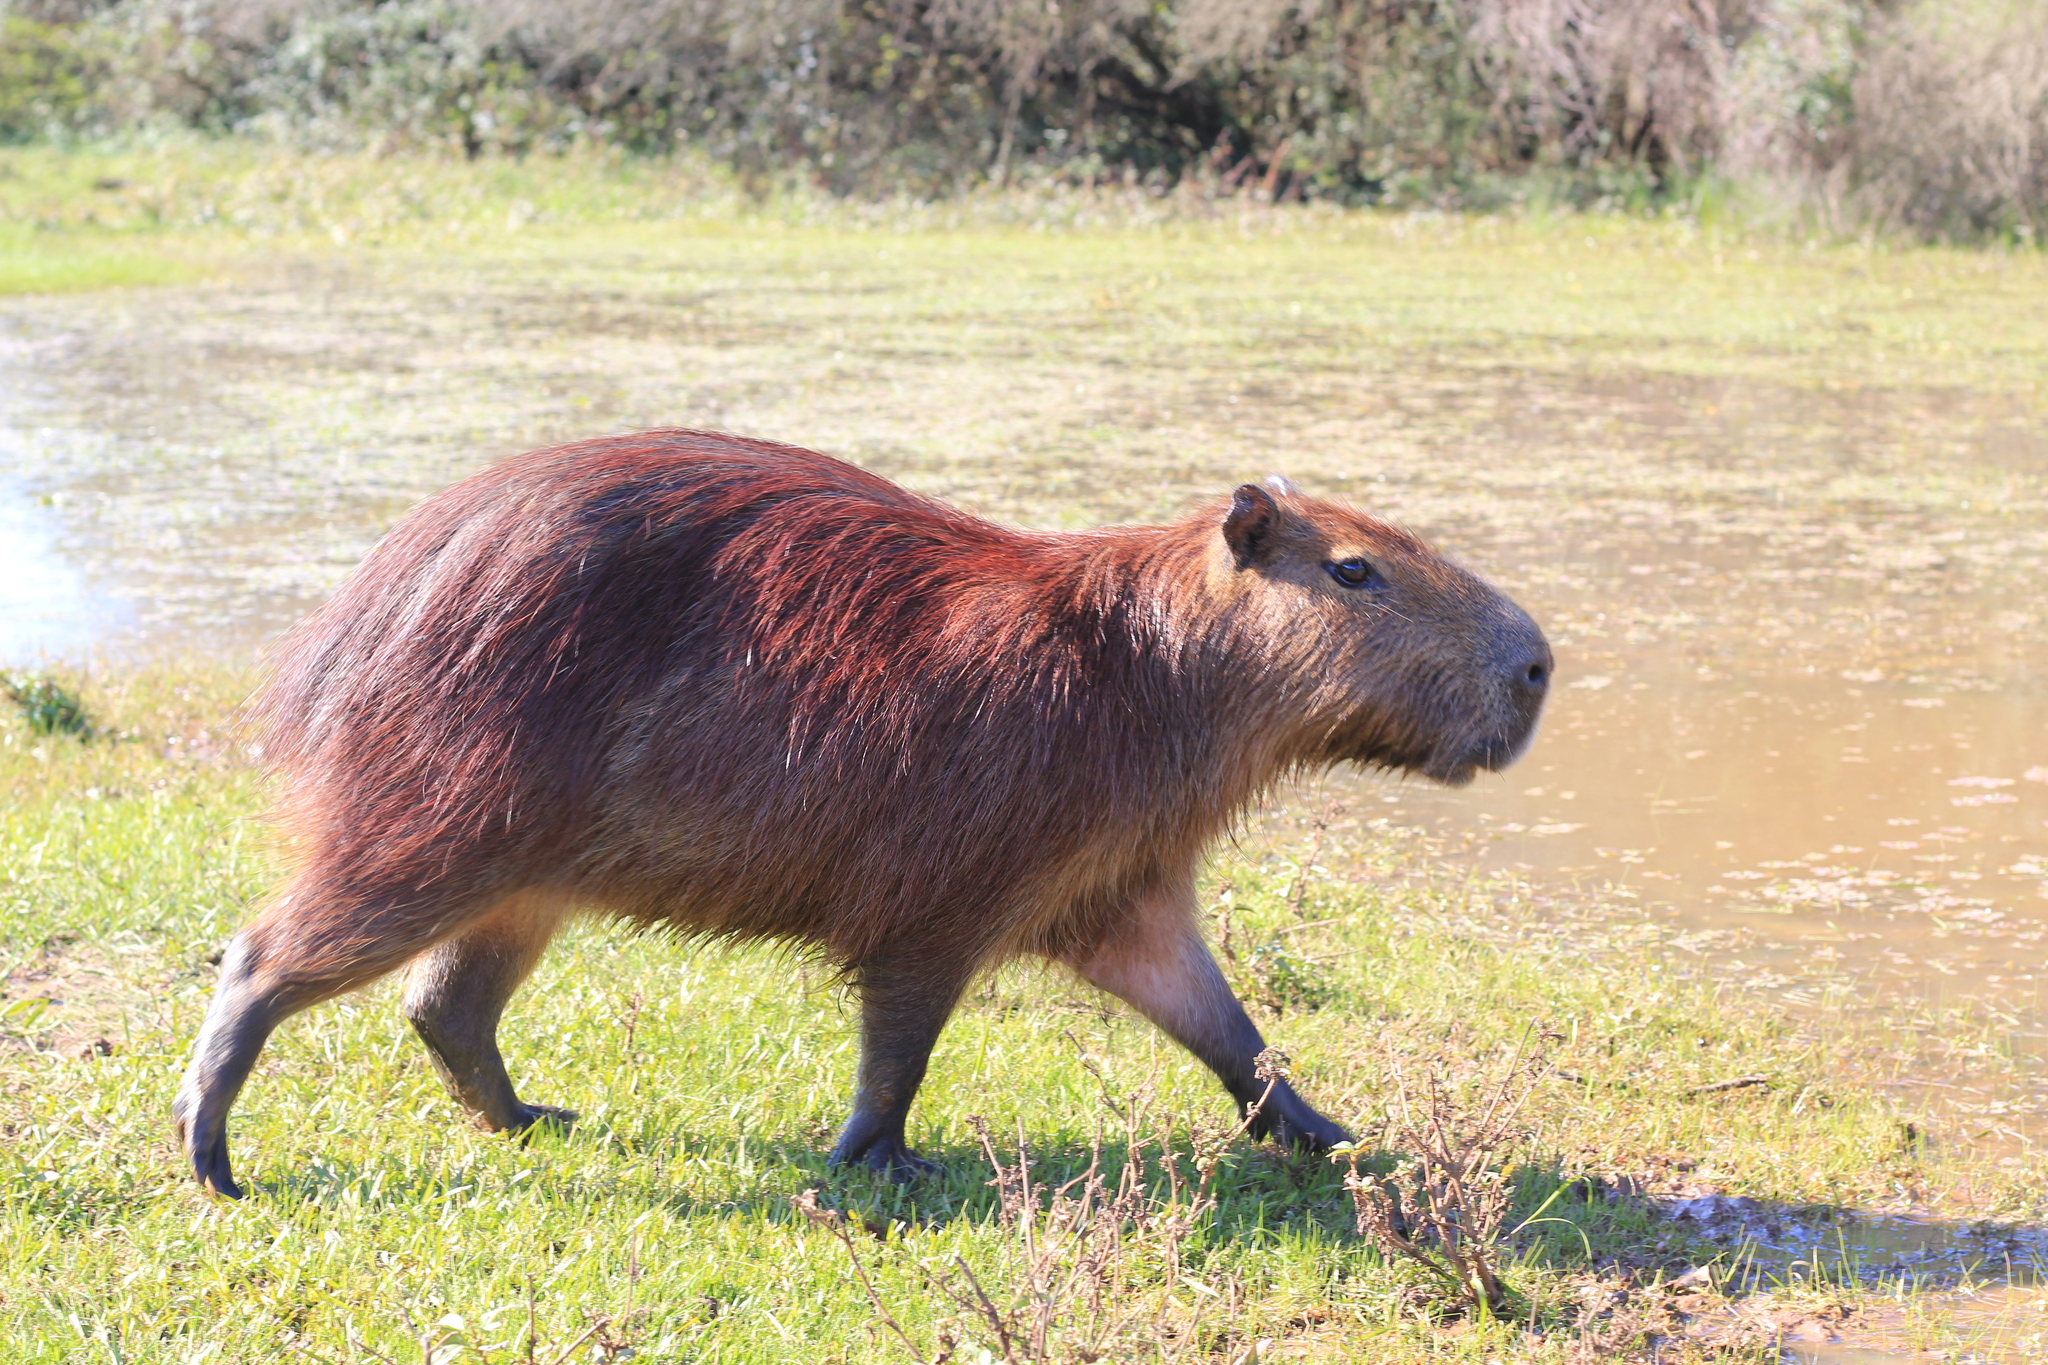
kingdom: Animalia
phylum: Chordata
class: Mammalia
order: Rodentia
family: Caviidae
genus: Hydrochoerus
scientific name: Hydrochoerus hydrochaeris
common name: Capybara
